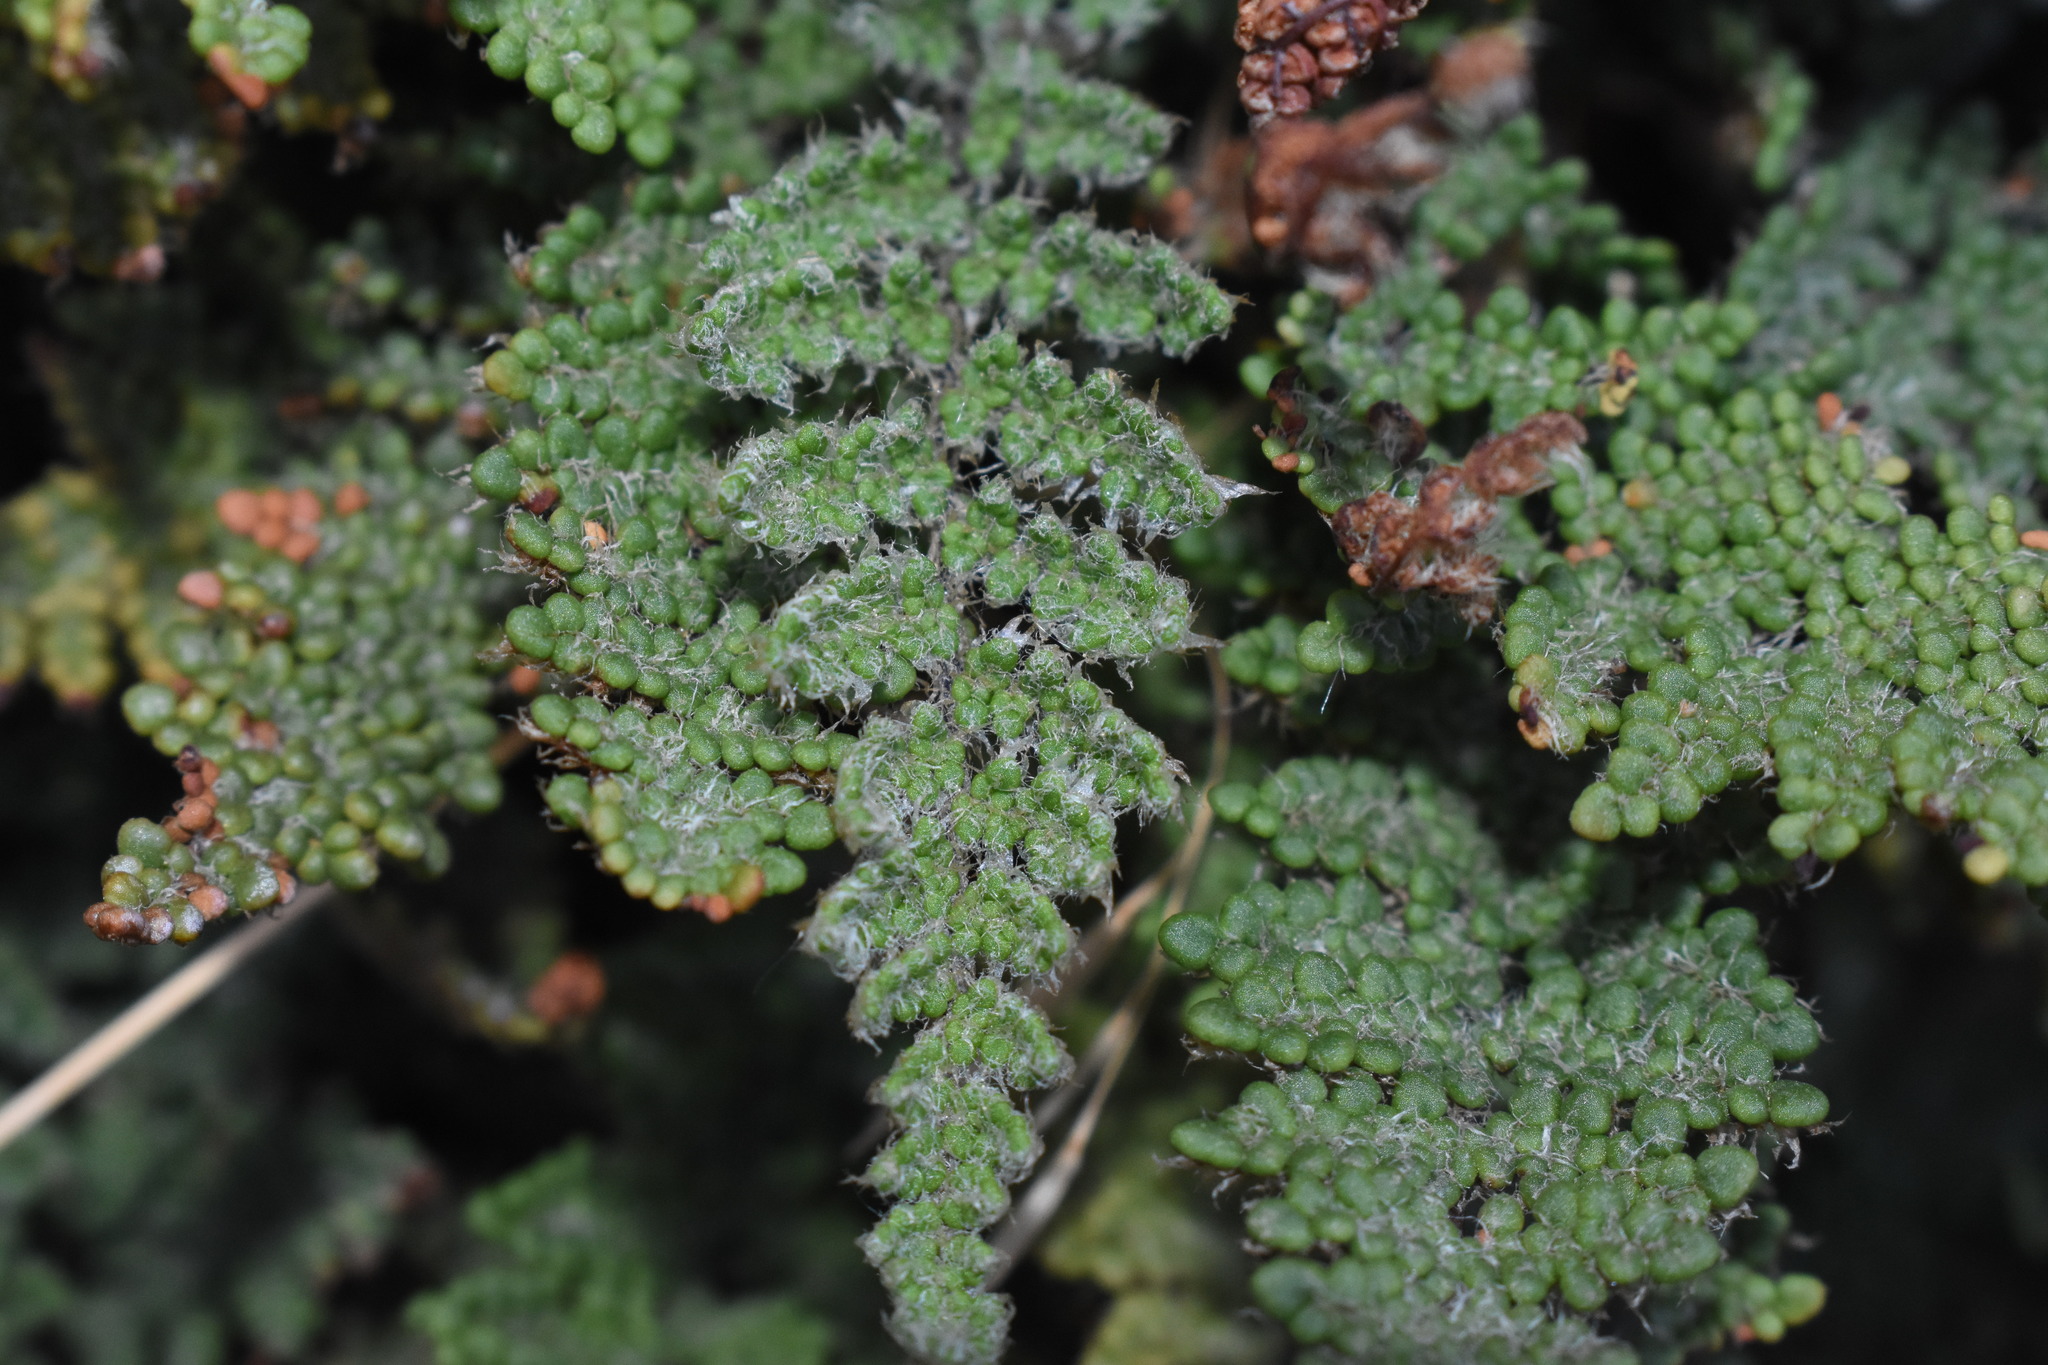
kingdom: Plantae
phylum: Tracheophyta
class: Polypodiopsida
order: Polypodiales
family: Pteridaceae
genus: Myriopteris
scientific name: Myriopteris intertexta
